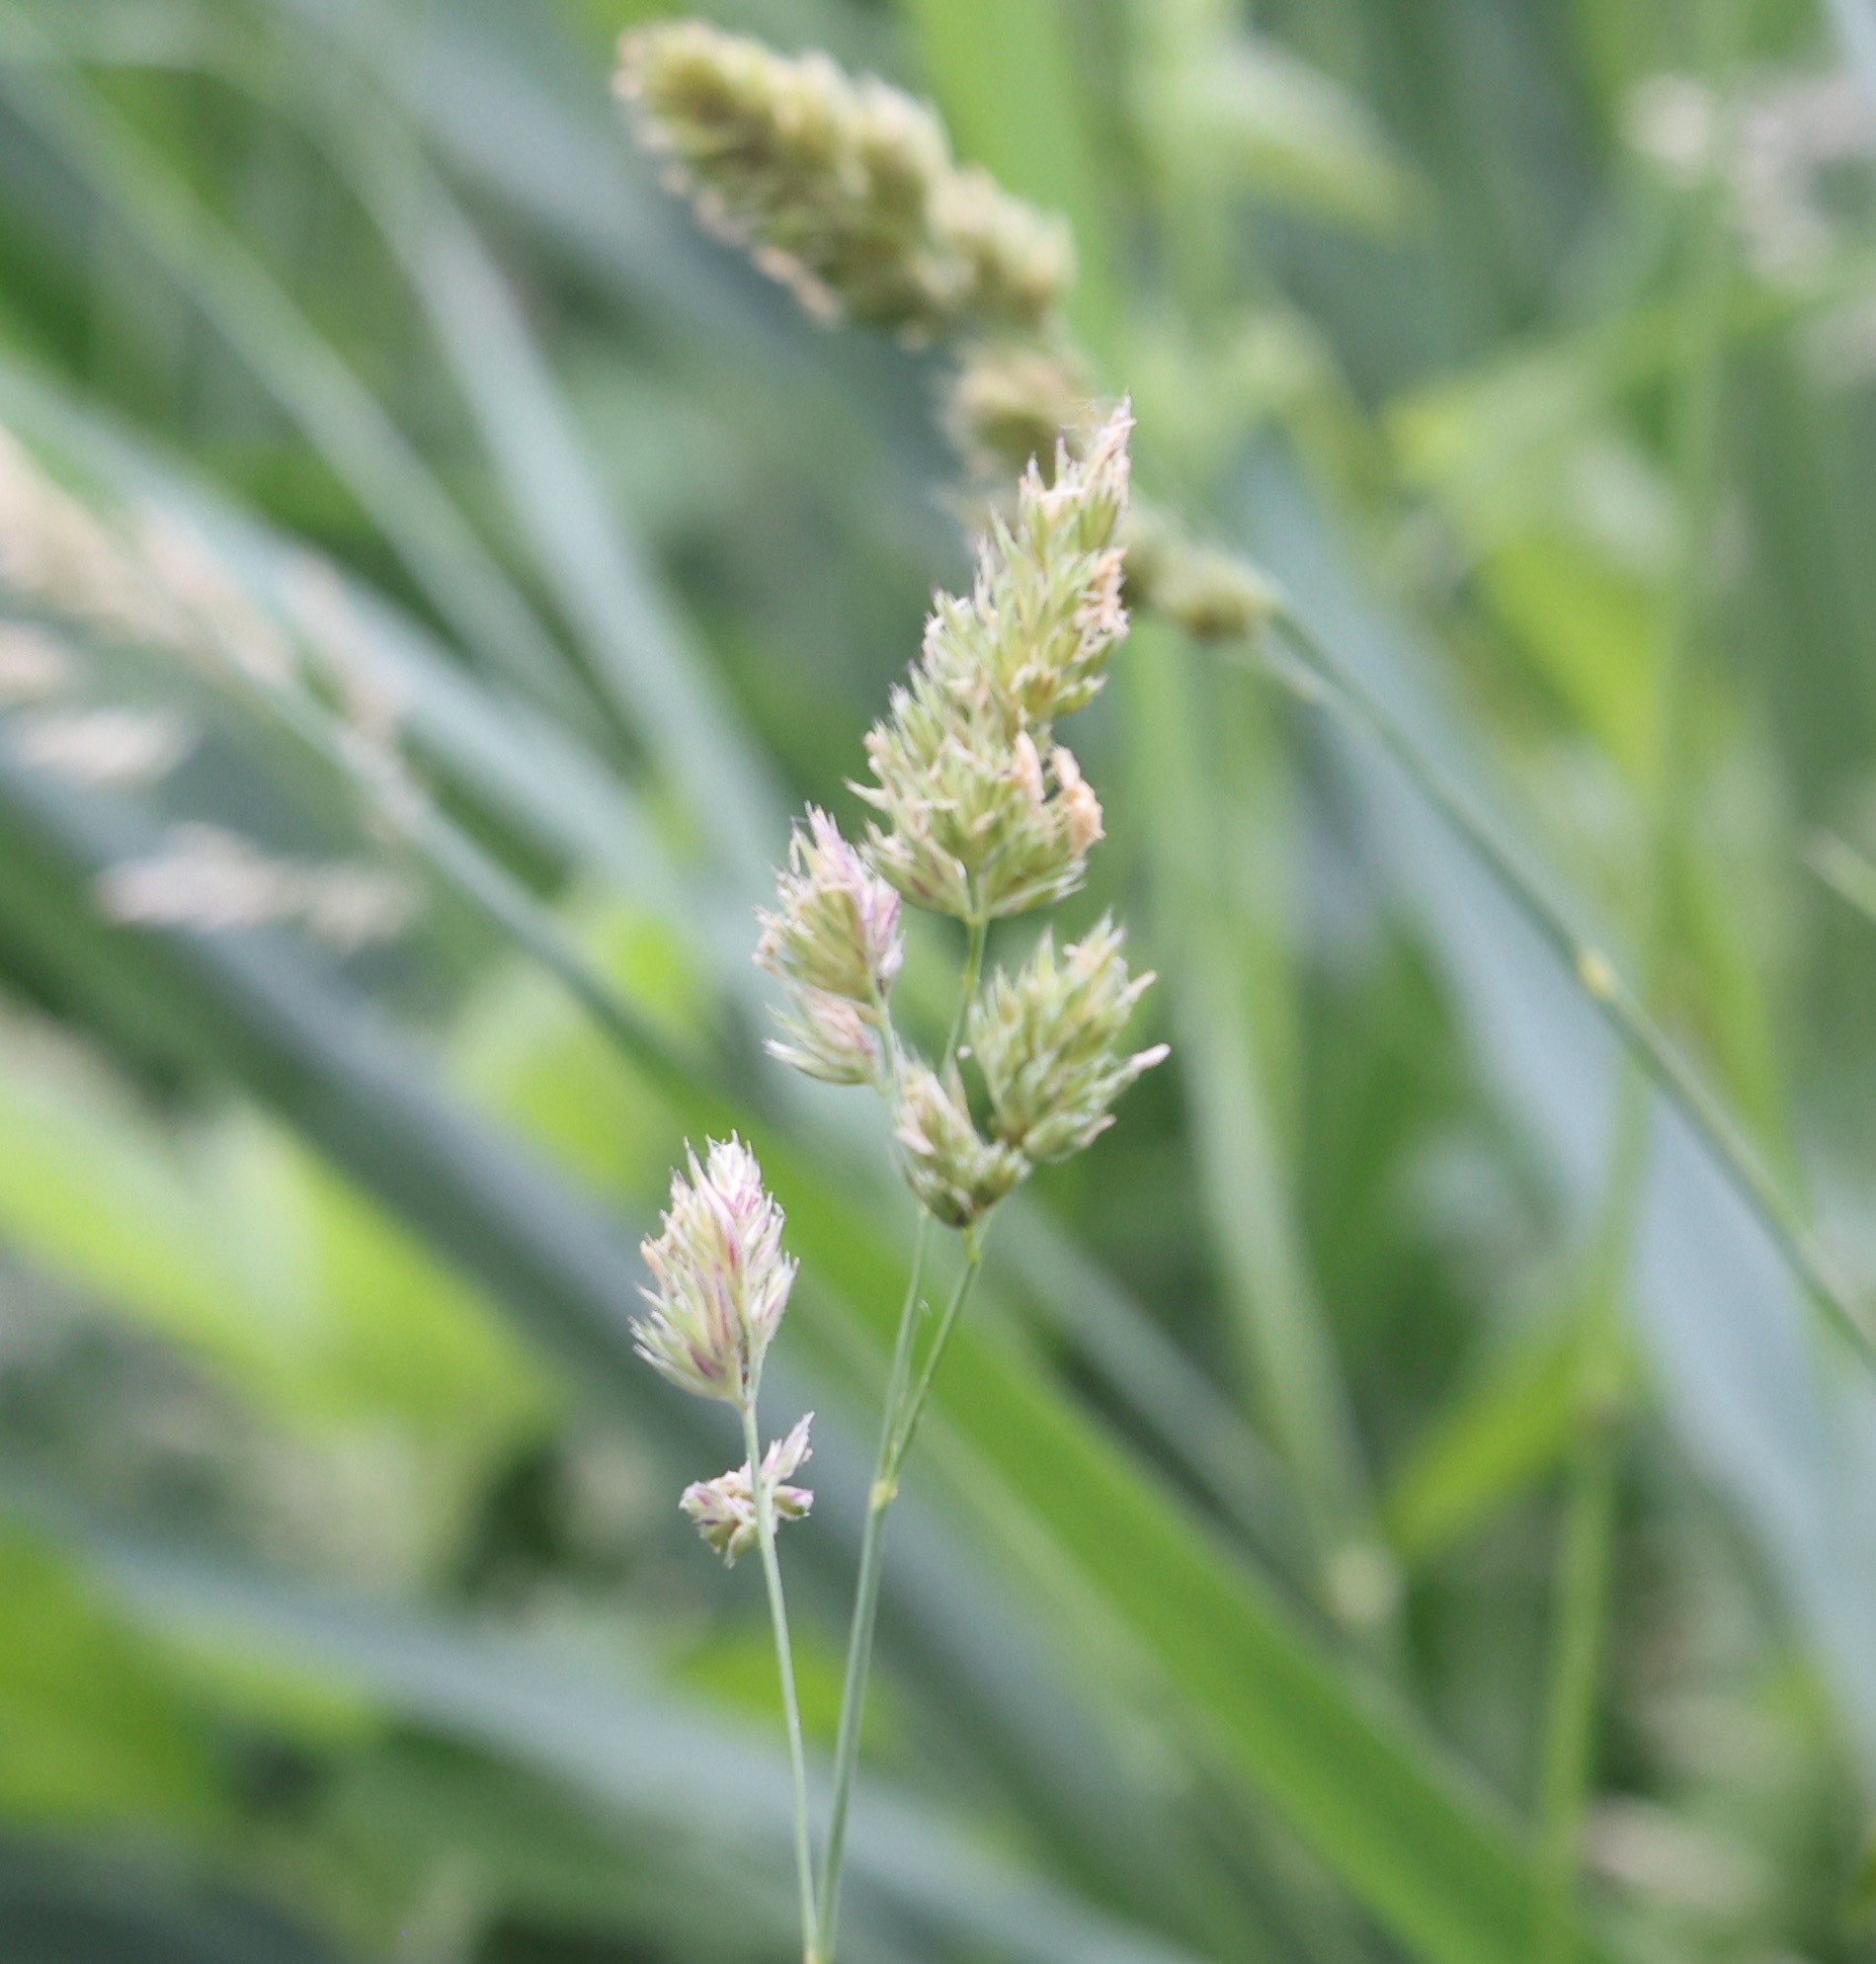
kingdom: Plantae
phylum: Tracheophyta
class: Liliopsida
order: Poales
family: Poaceae
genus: Dactylis
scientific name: Dactylis glomerata
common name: Orchardgrass
